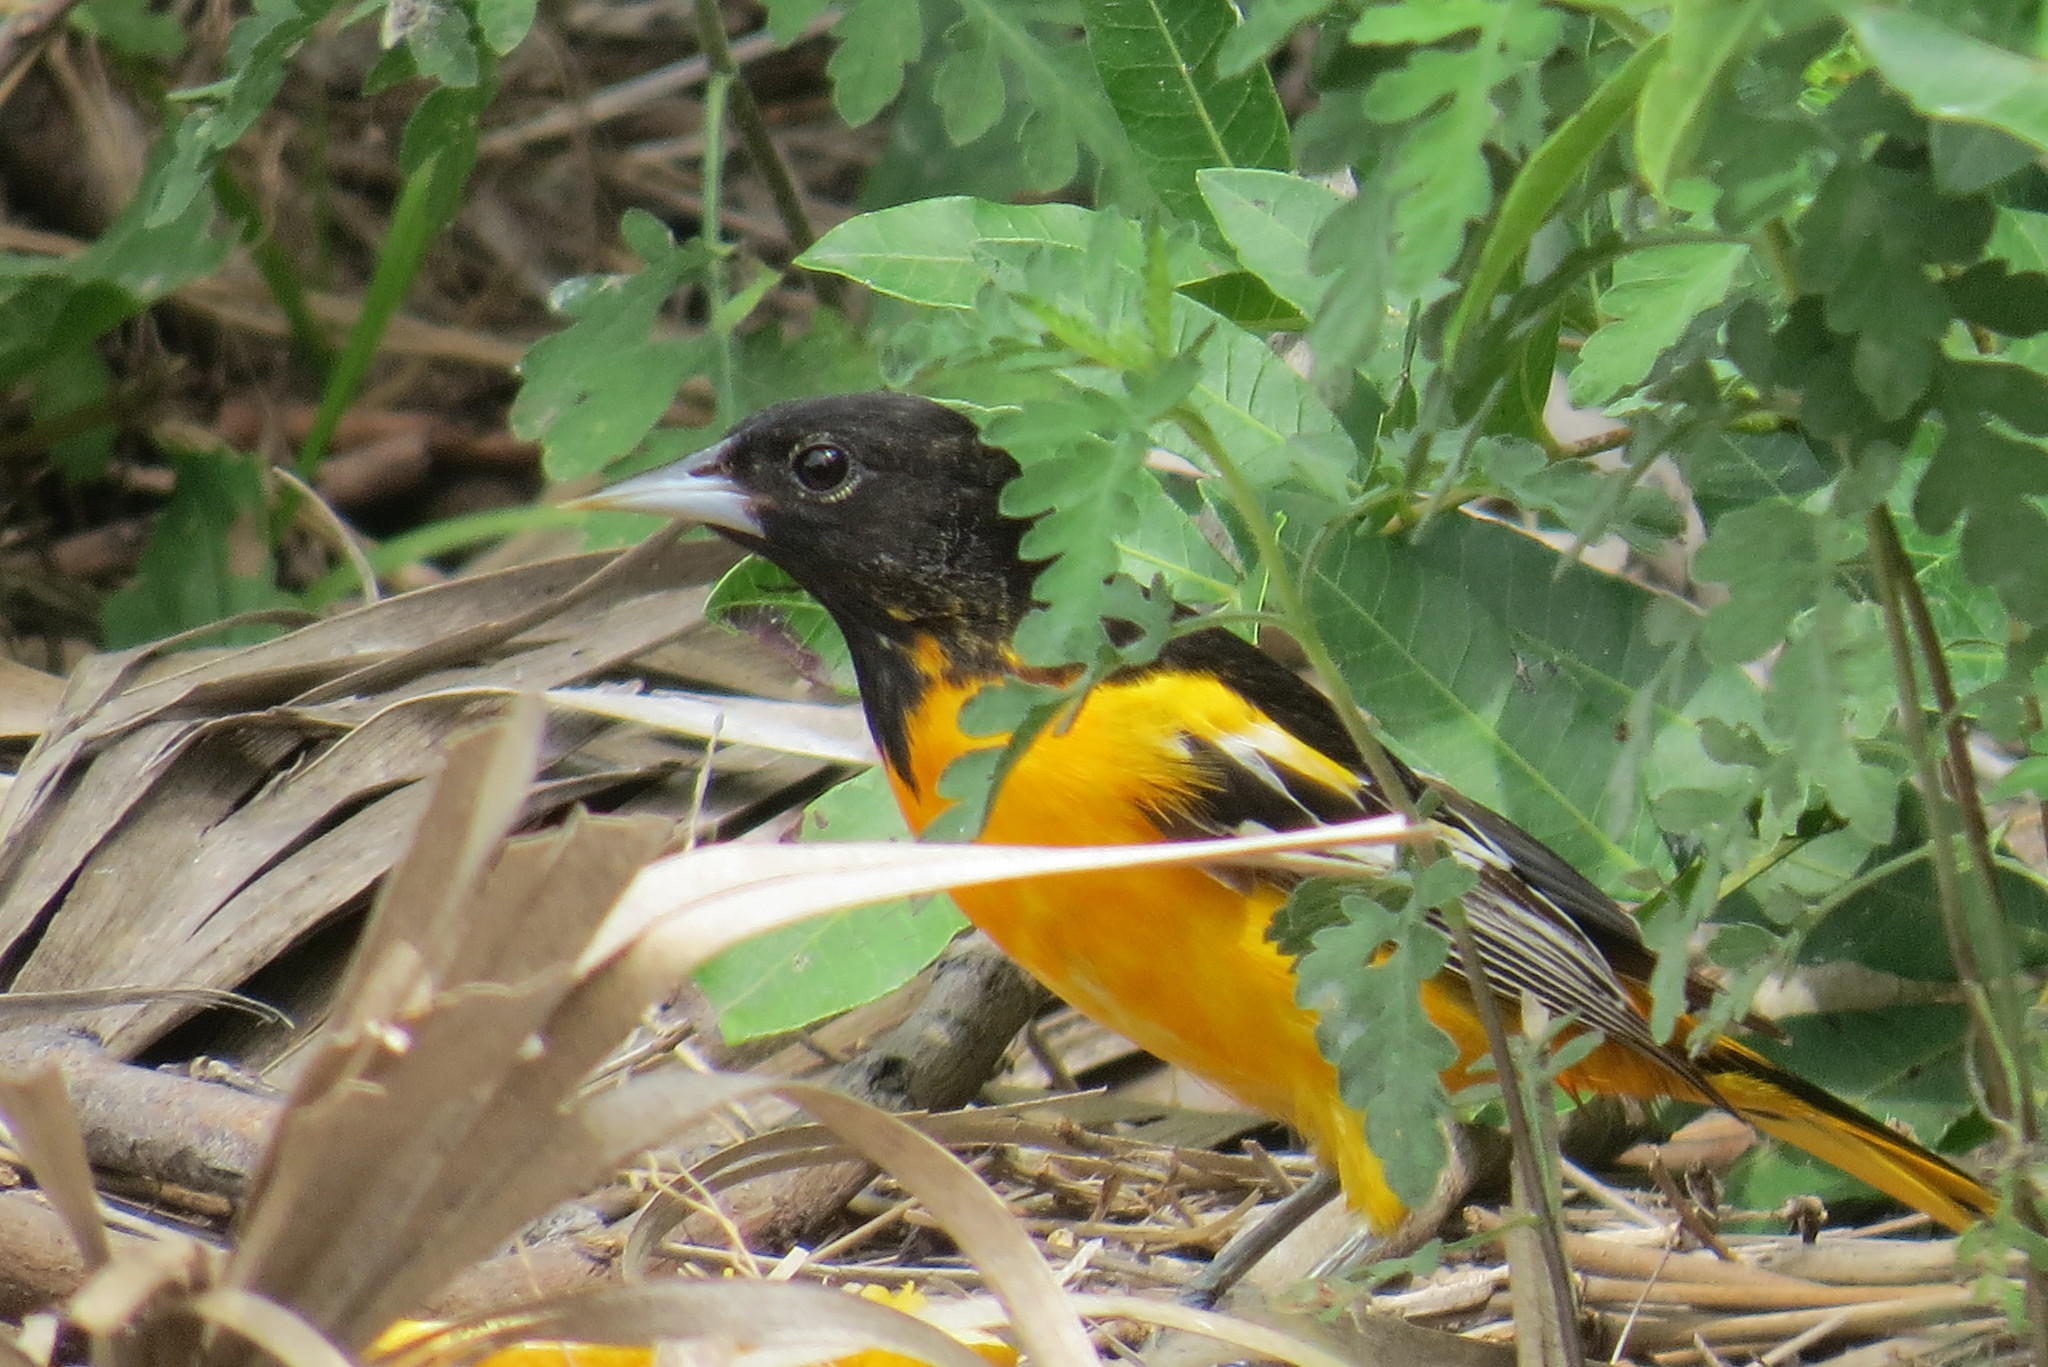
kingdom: Animalia
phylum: Chordata
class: Aves
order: Passeriformes
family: Icteridae
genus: Icterus
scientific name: Icterus galbula
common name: Baltimore oriole
